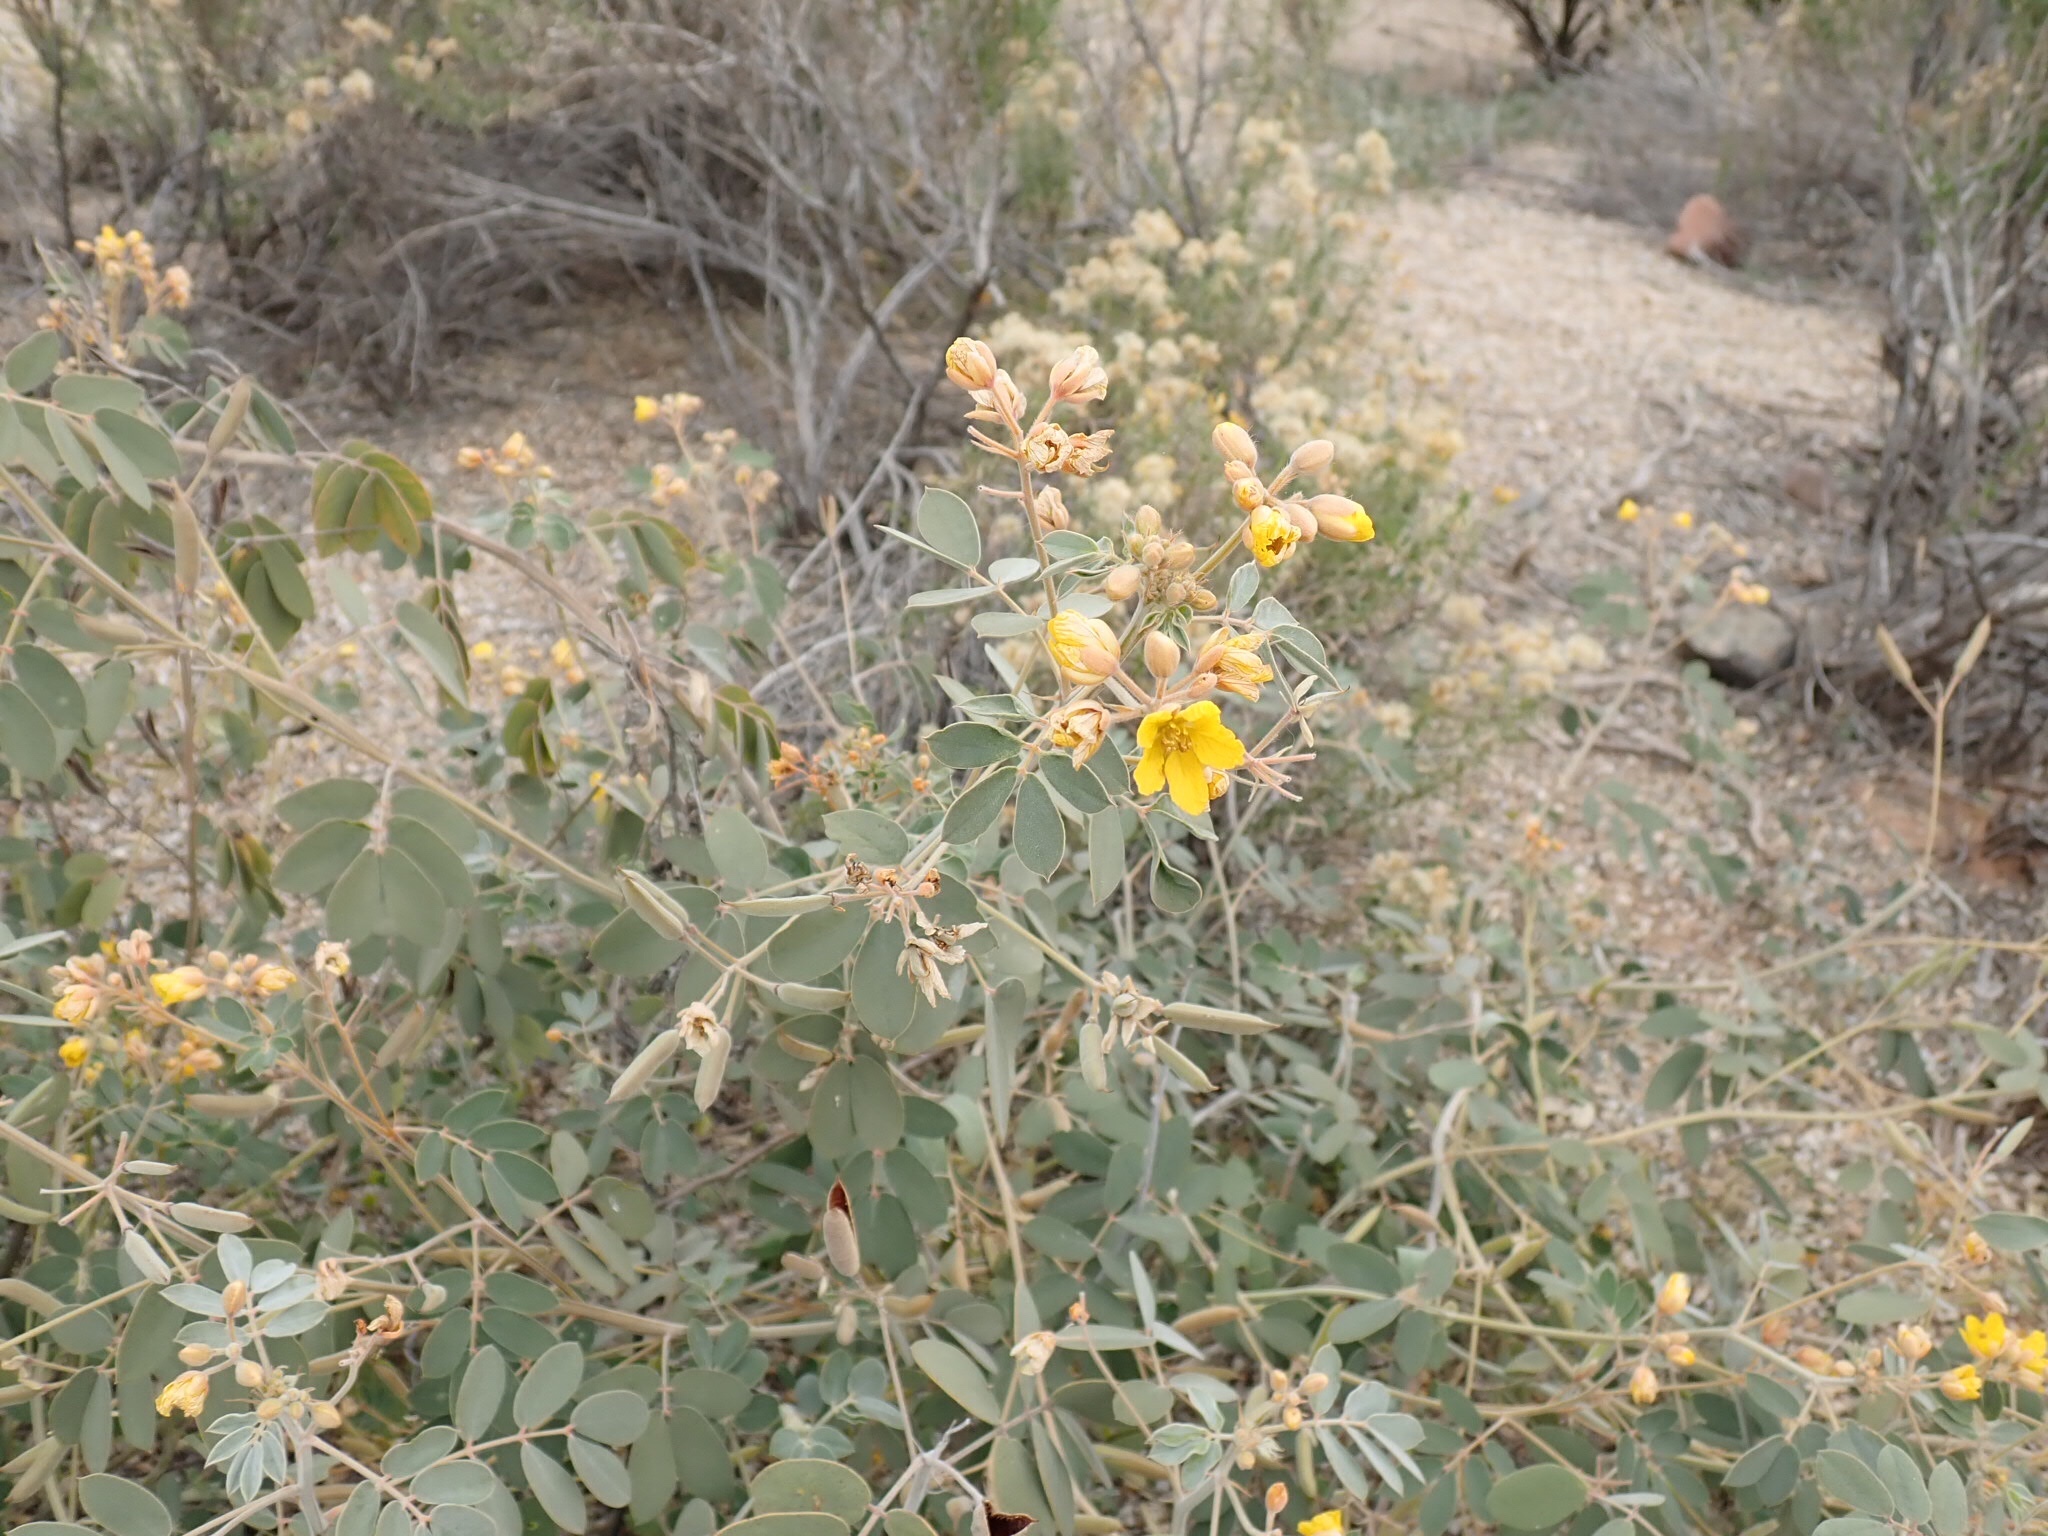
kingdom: Plantae
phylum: Tracheophyta
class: Magnoliopsida
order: Fabales
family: Fabaceae
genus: Senna
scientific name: Senna covesii
